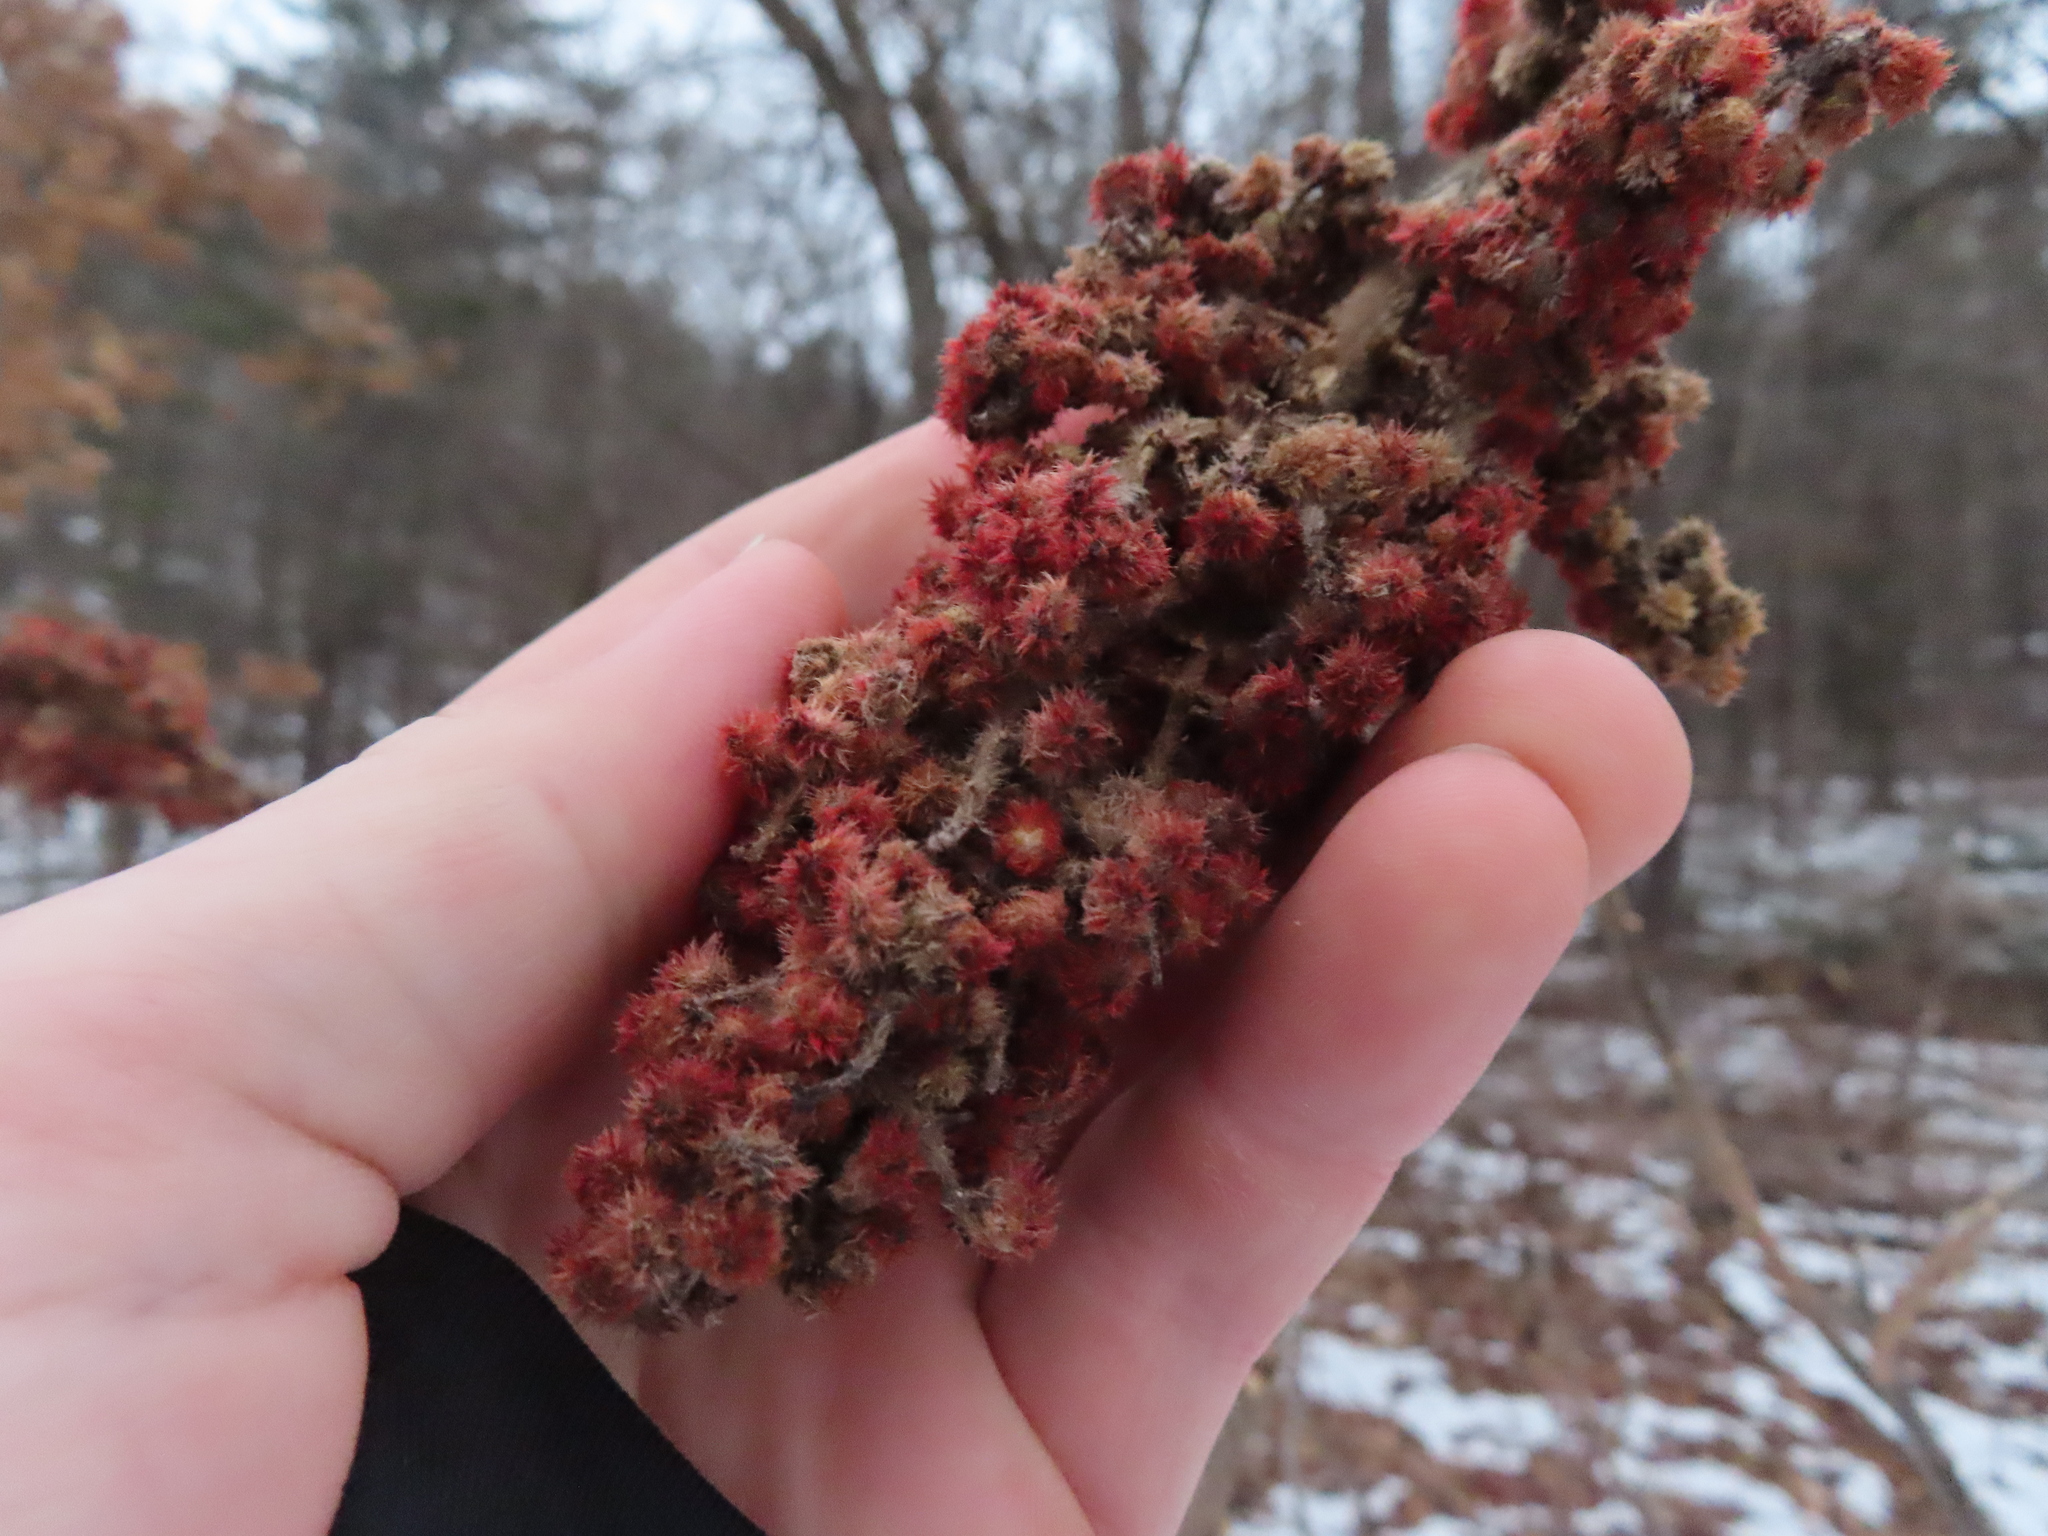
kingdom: Plantae
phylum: Tracheophyta
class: Magnoliopsida
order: Sapindales
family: Anacardiaceae
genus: Rhus
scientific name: Rhus typhina
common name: Staghorn sumac
